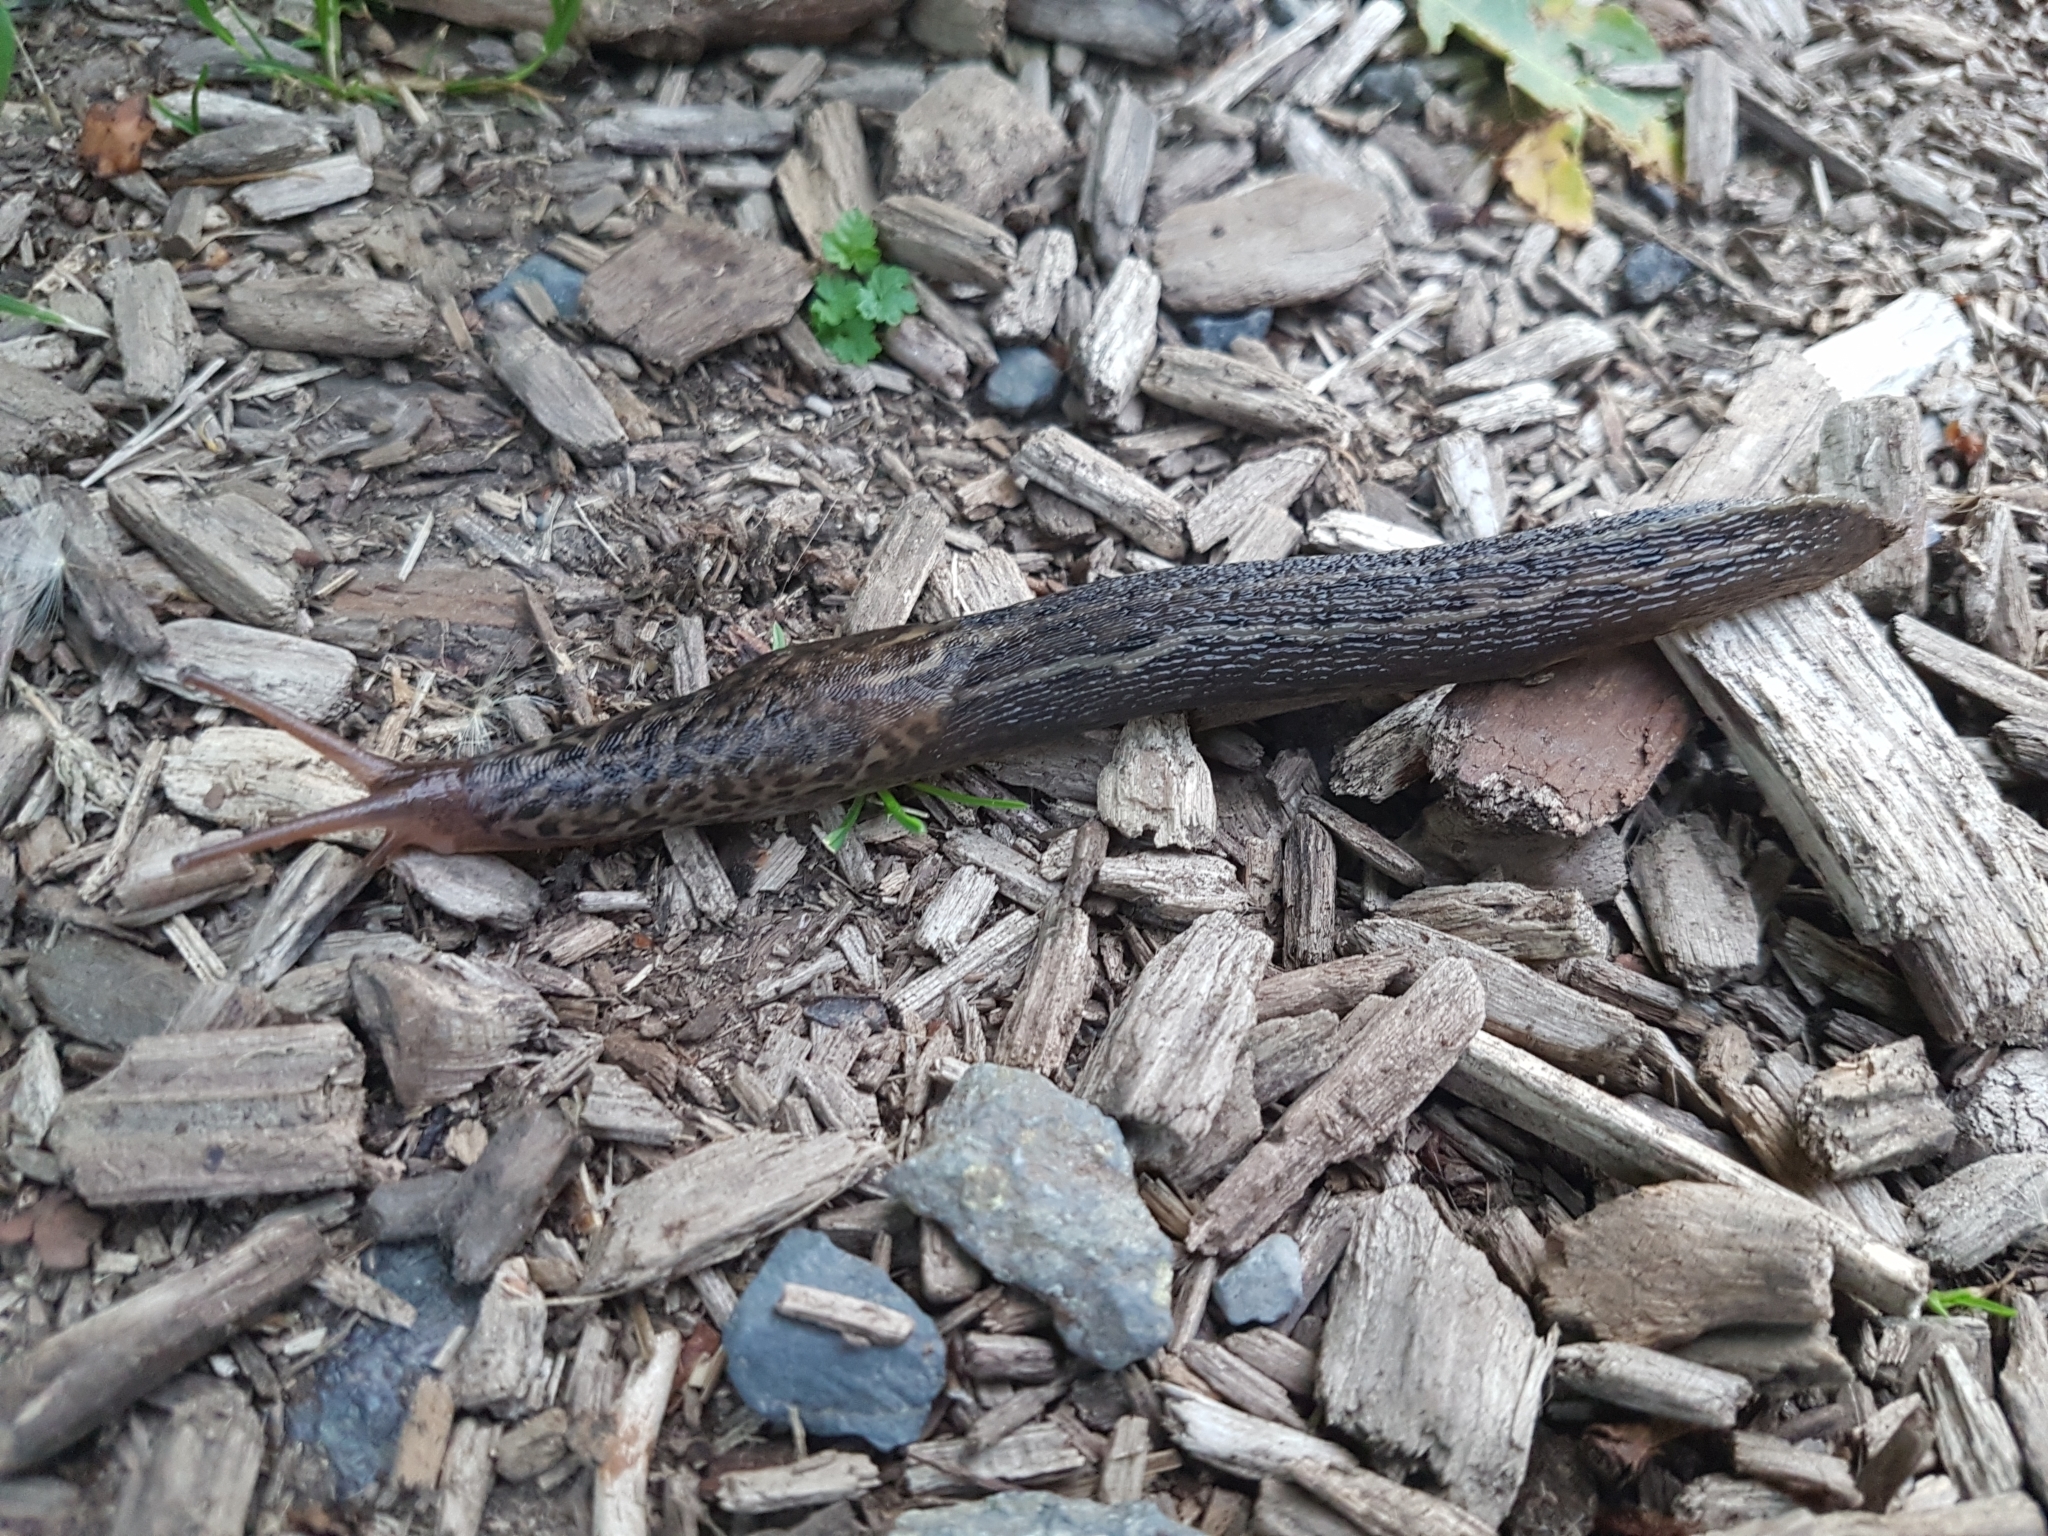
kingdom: Animalia
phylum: Mollusca
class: Gastropoda
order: Stylommatophora
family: Limacidae
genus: Limax
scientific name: Limax maximus
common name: Great grey slug
